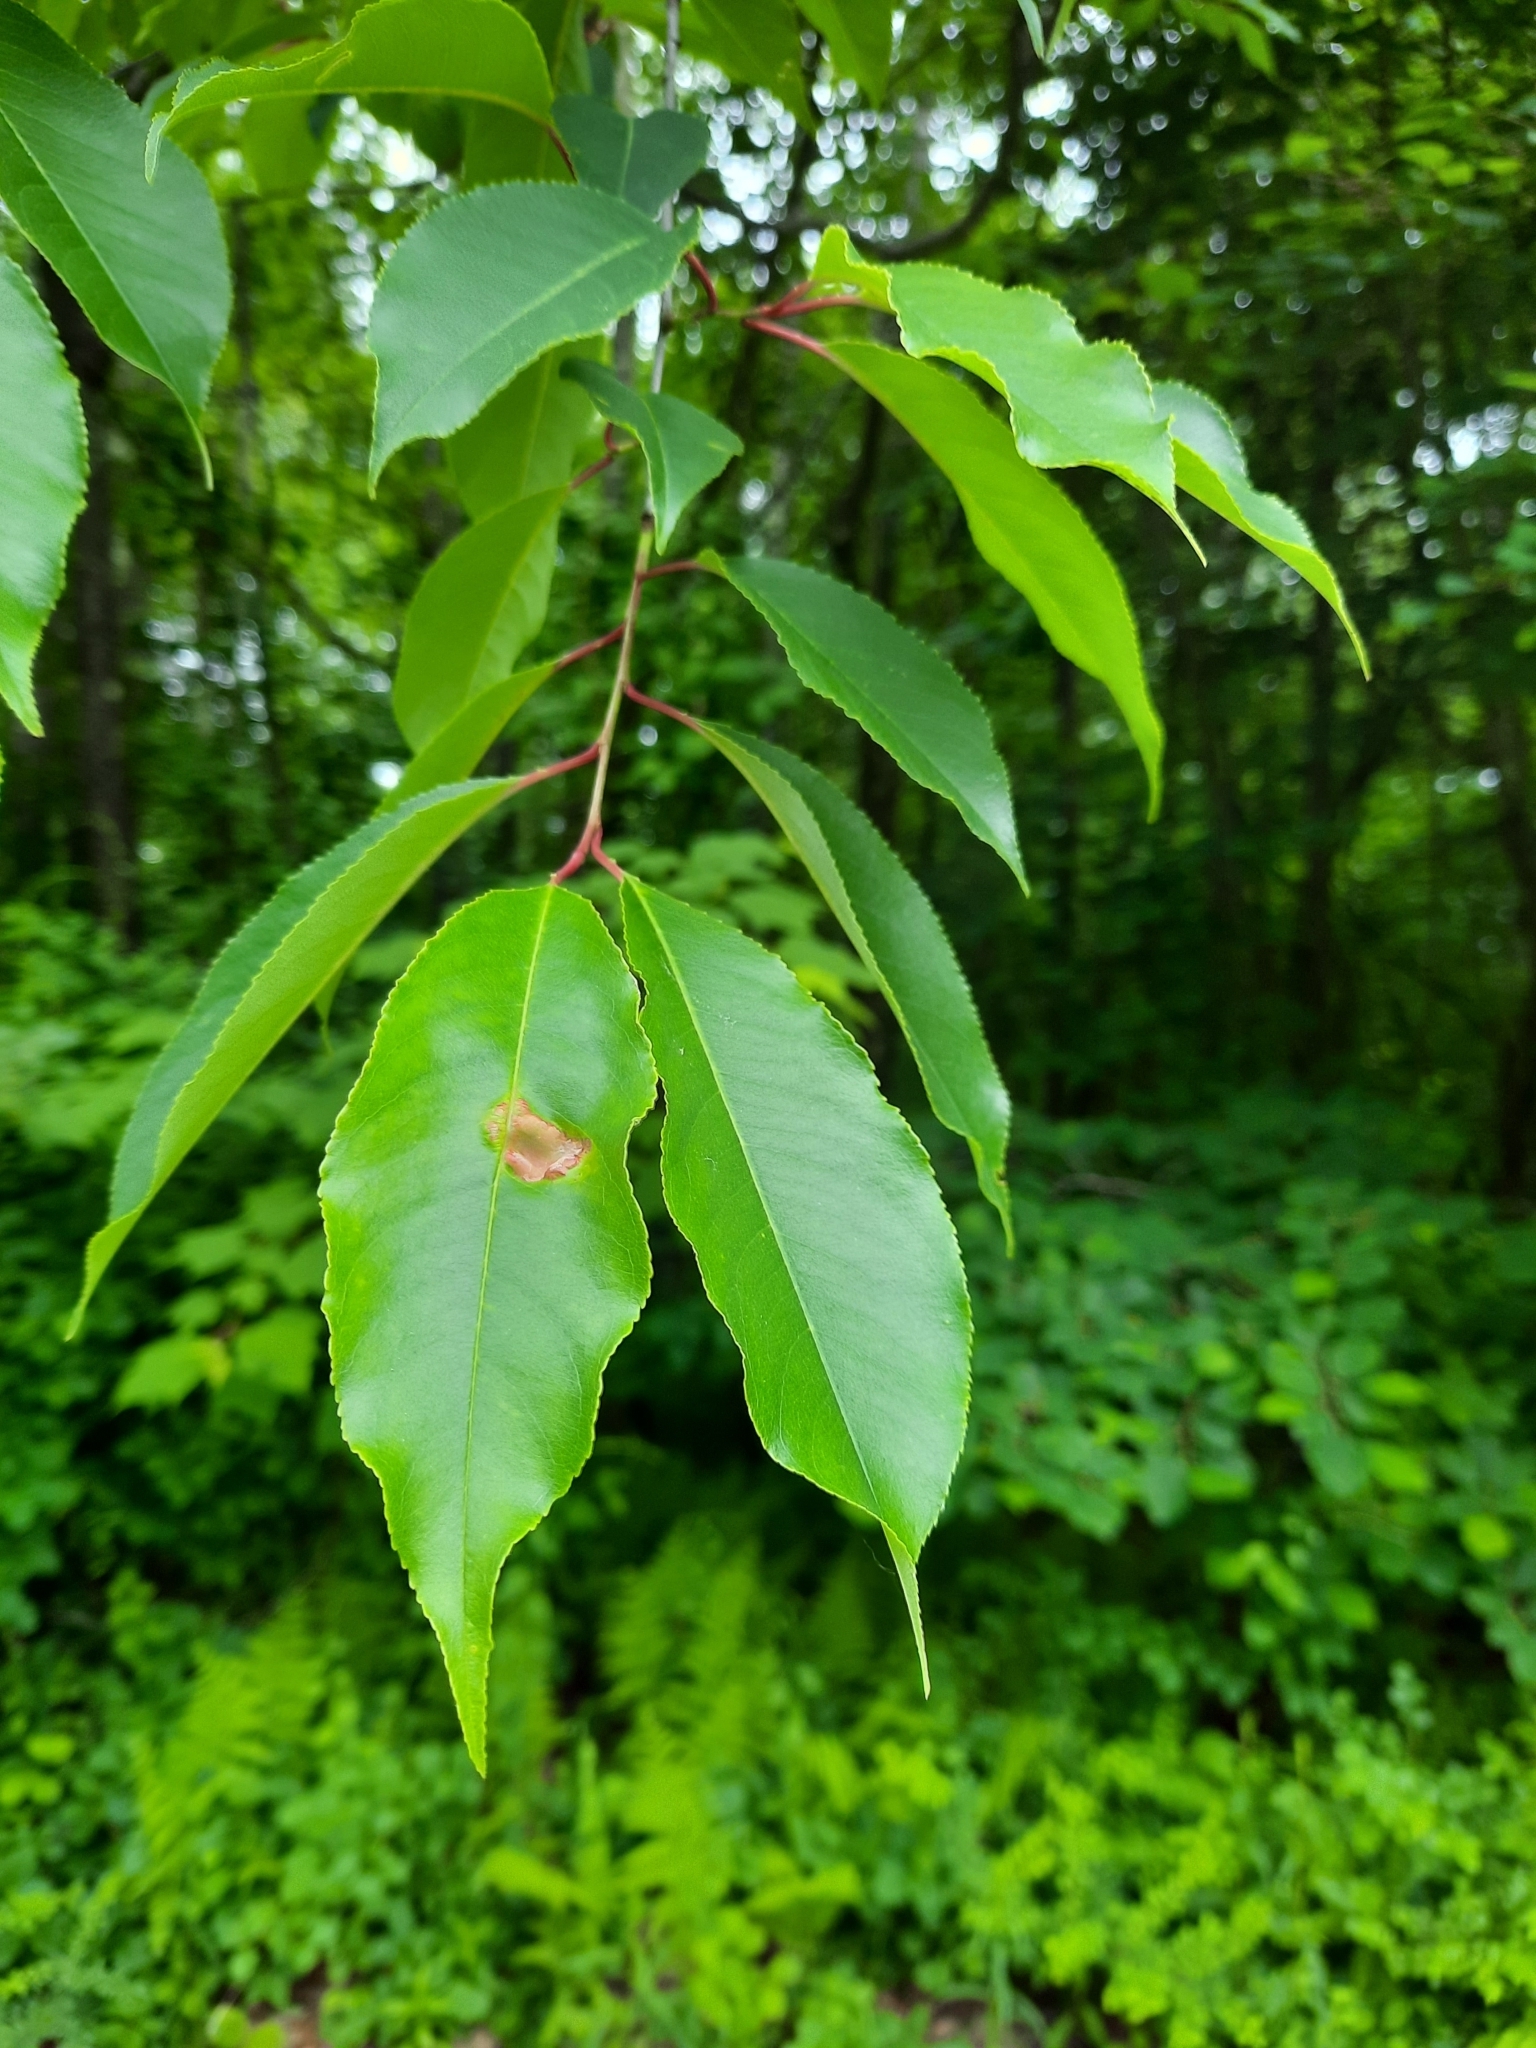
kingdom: Plantae
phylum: Tracheophyta
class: Magnoliopsida
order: Rosales
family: Rosaceae
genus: Prunus
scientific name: Prunus serotina
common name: Black cherry
